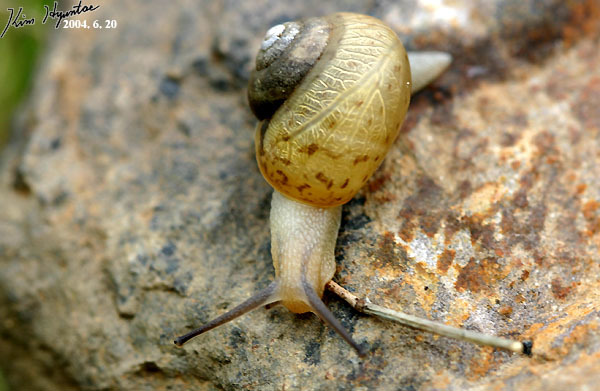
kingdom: Animalia
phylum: Mollusca
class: Gastropoda
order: Stylommatophora
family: Camaenidae
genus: Acusta
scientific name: Acusta redfieldi
